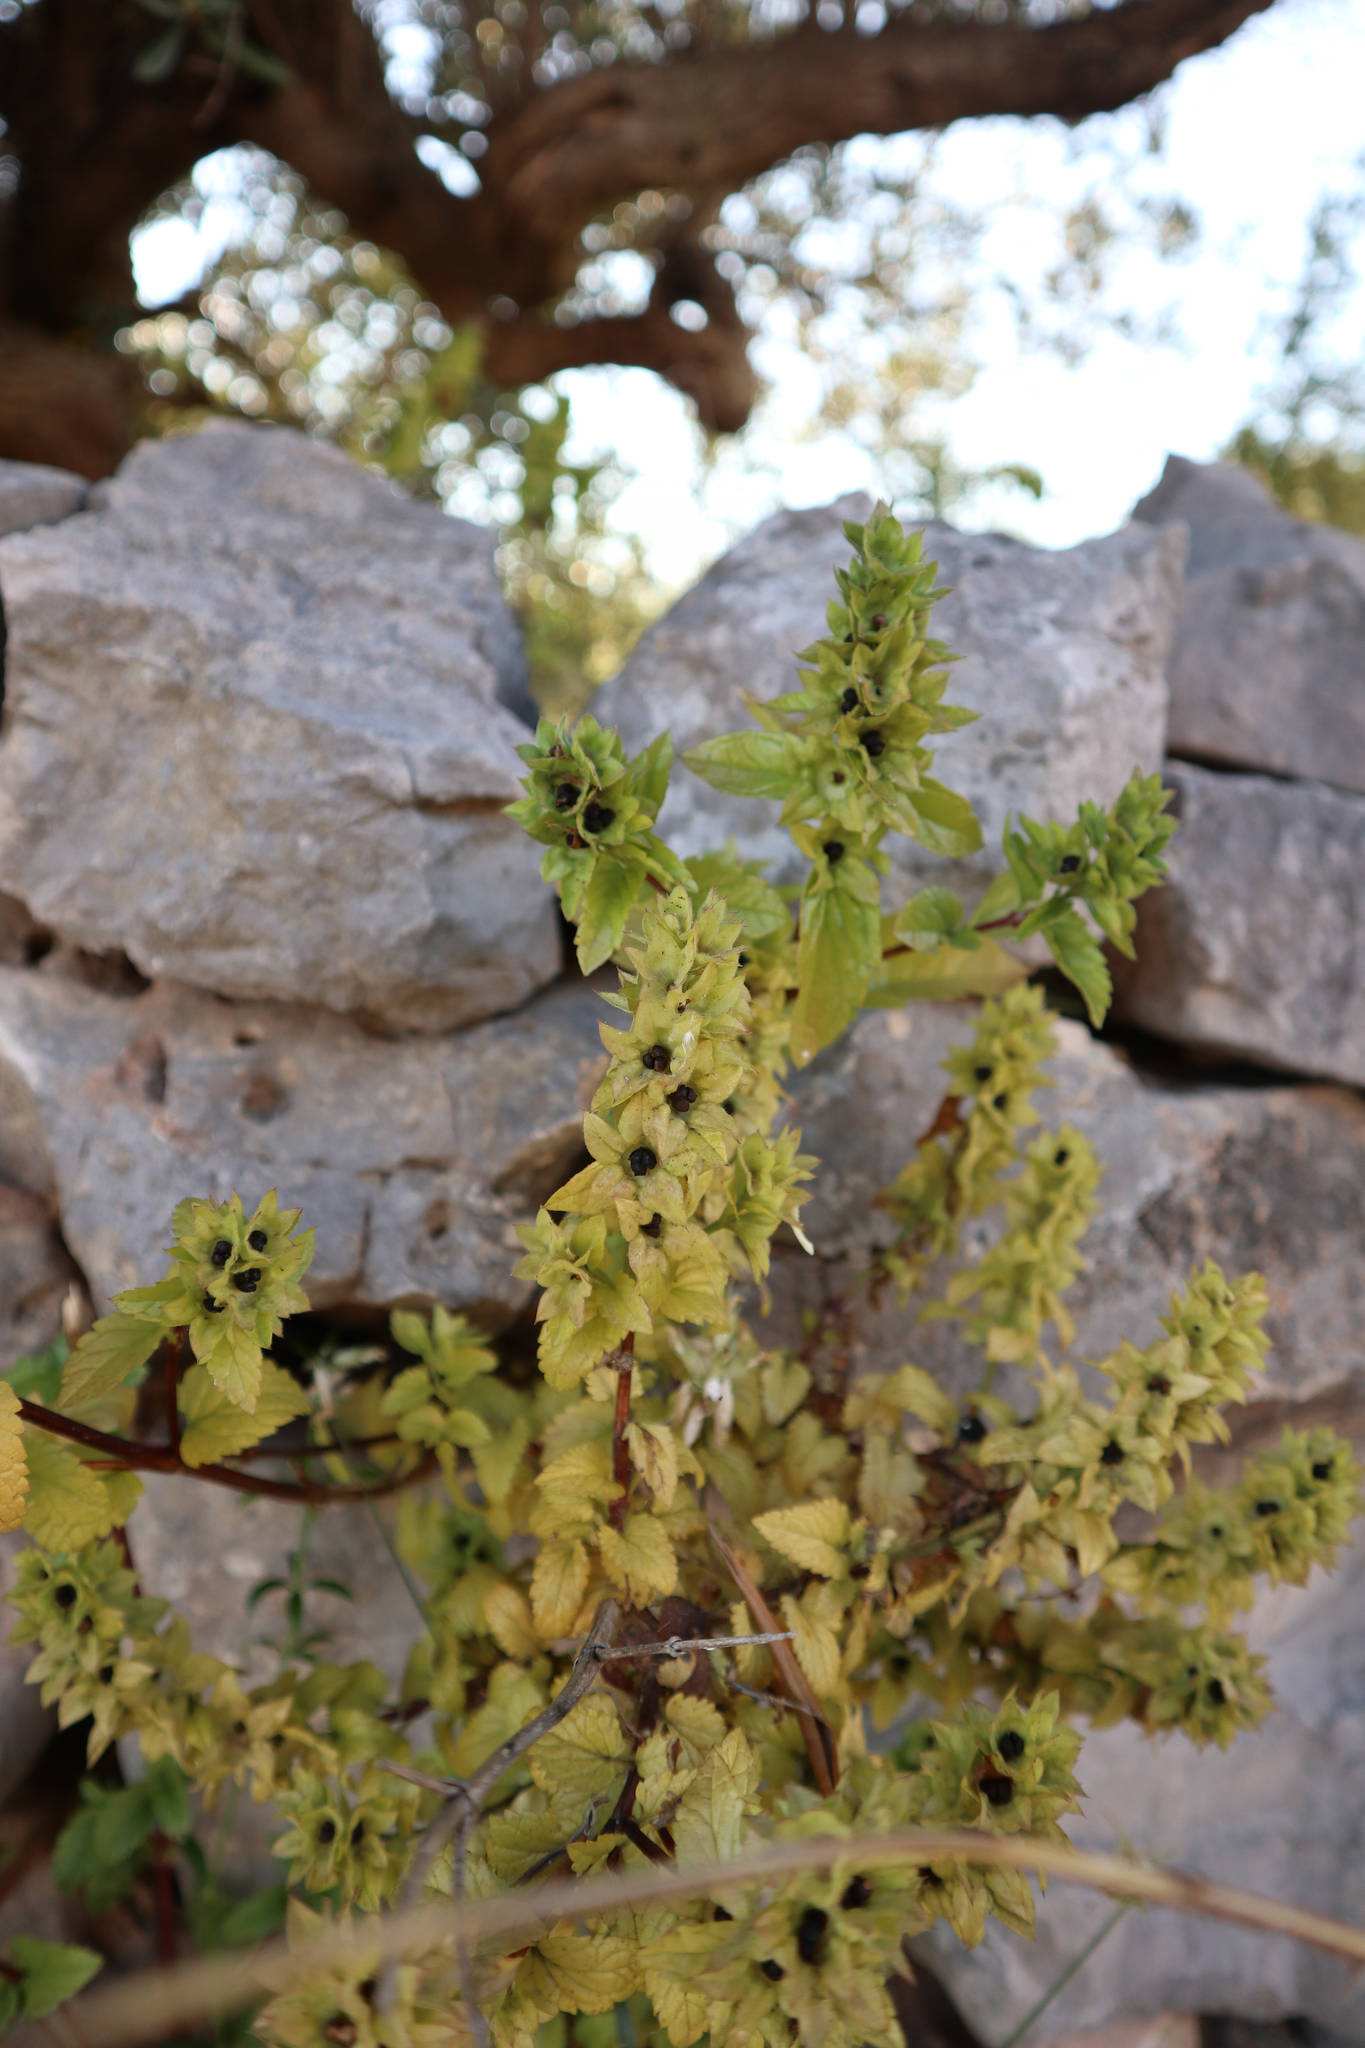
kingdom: Plantae
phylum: Tracheophyta
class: Magnoliopsida
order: Lamiales
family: Lamiaceae
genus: Prasium
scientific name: Prasium majus
